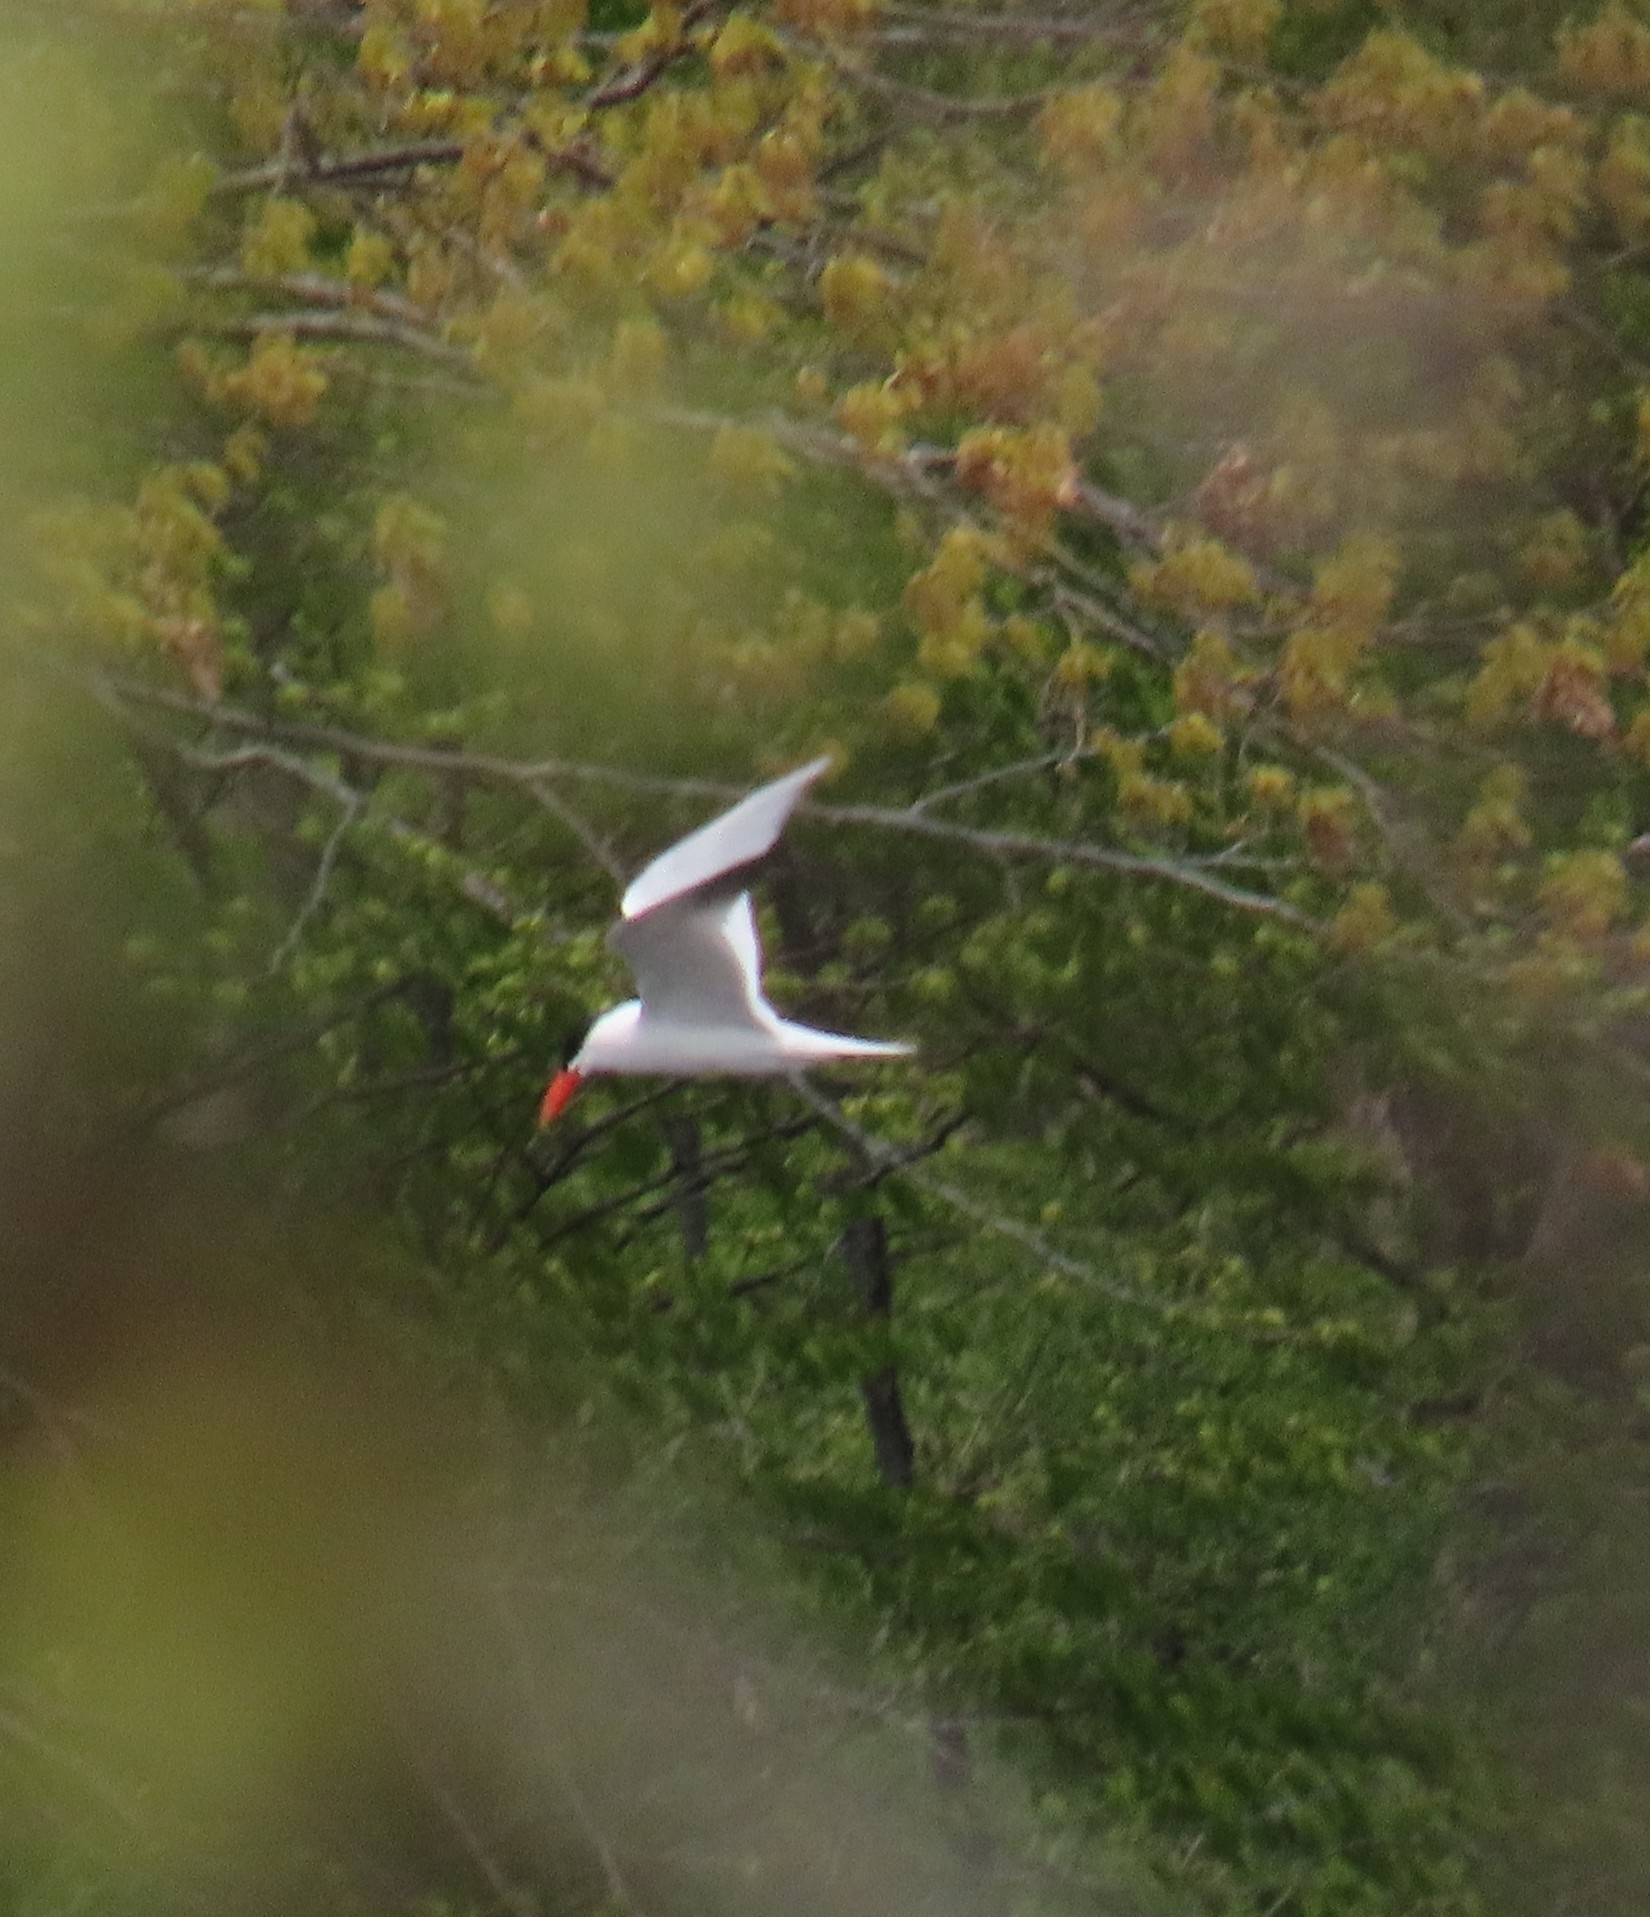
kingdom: Animalia
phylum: Chordata
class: Aves
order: Charadriiformes
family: Laridae
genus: Hydroprogne
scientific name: Hydroprogne caspia
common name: Caspian tern
